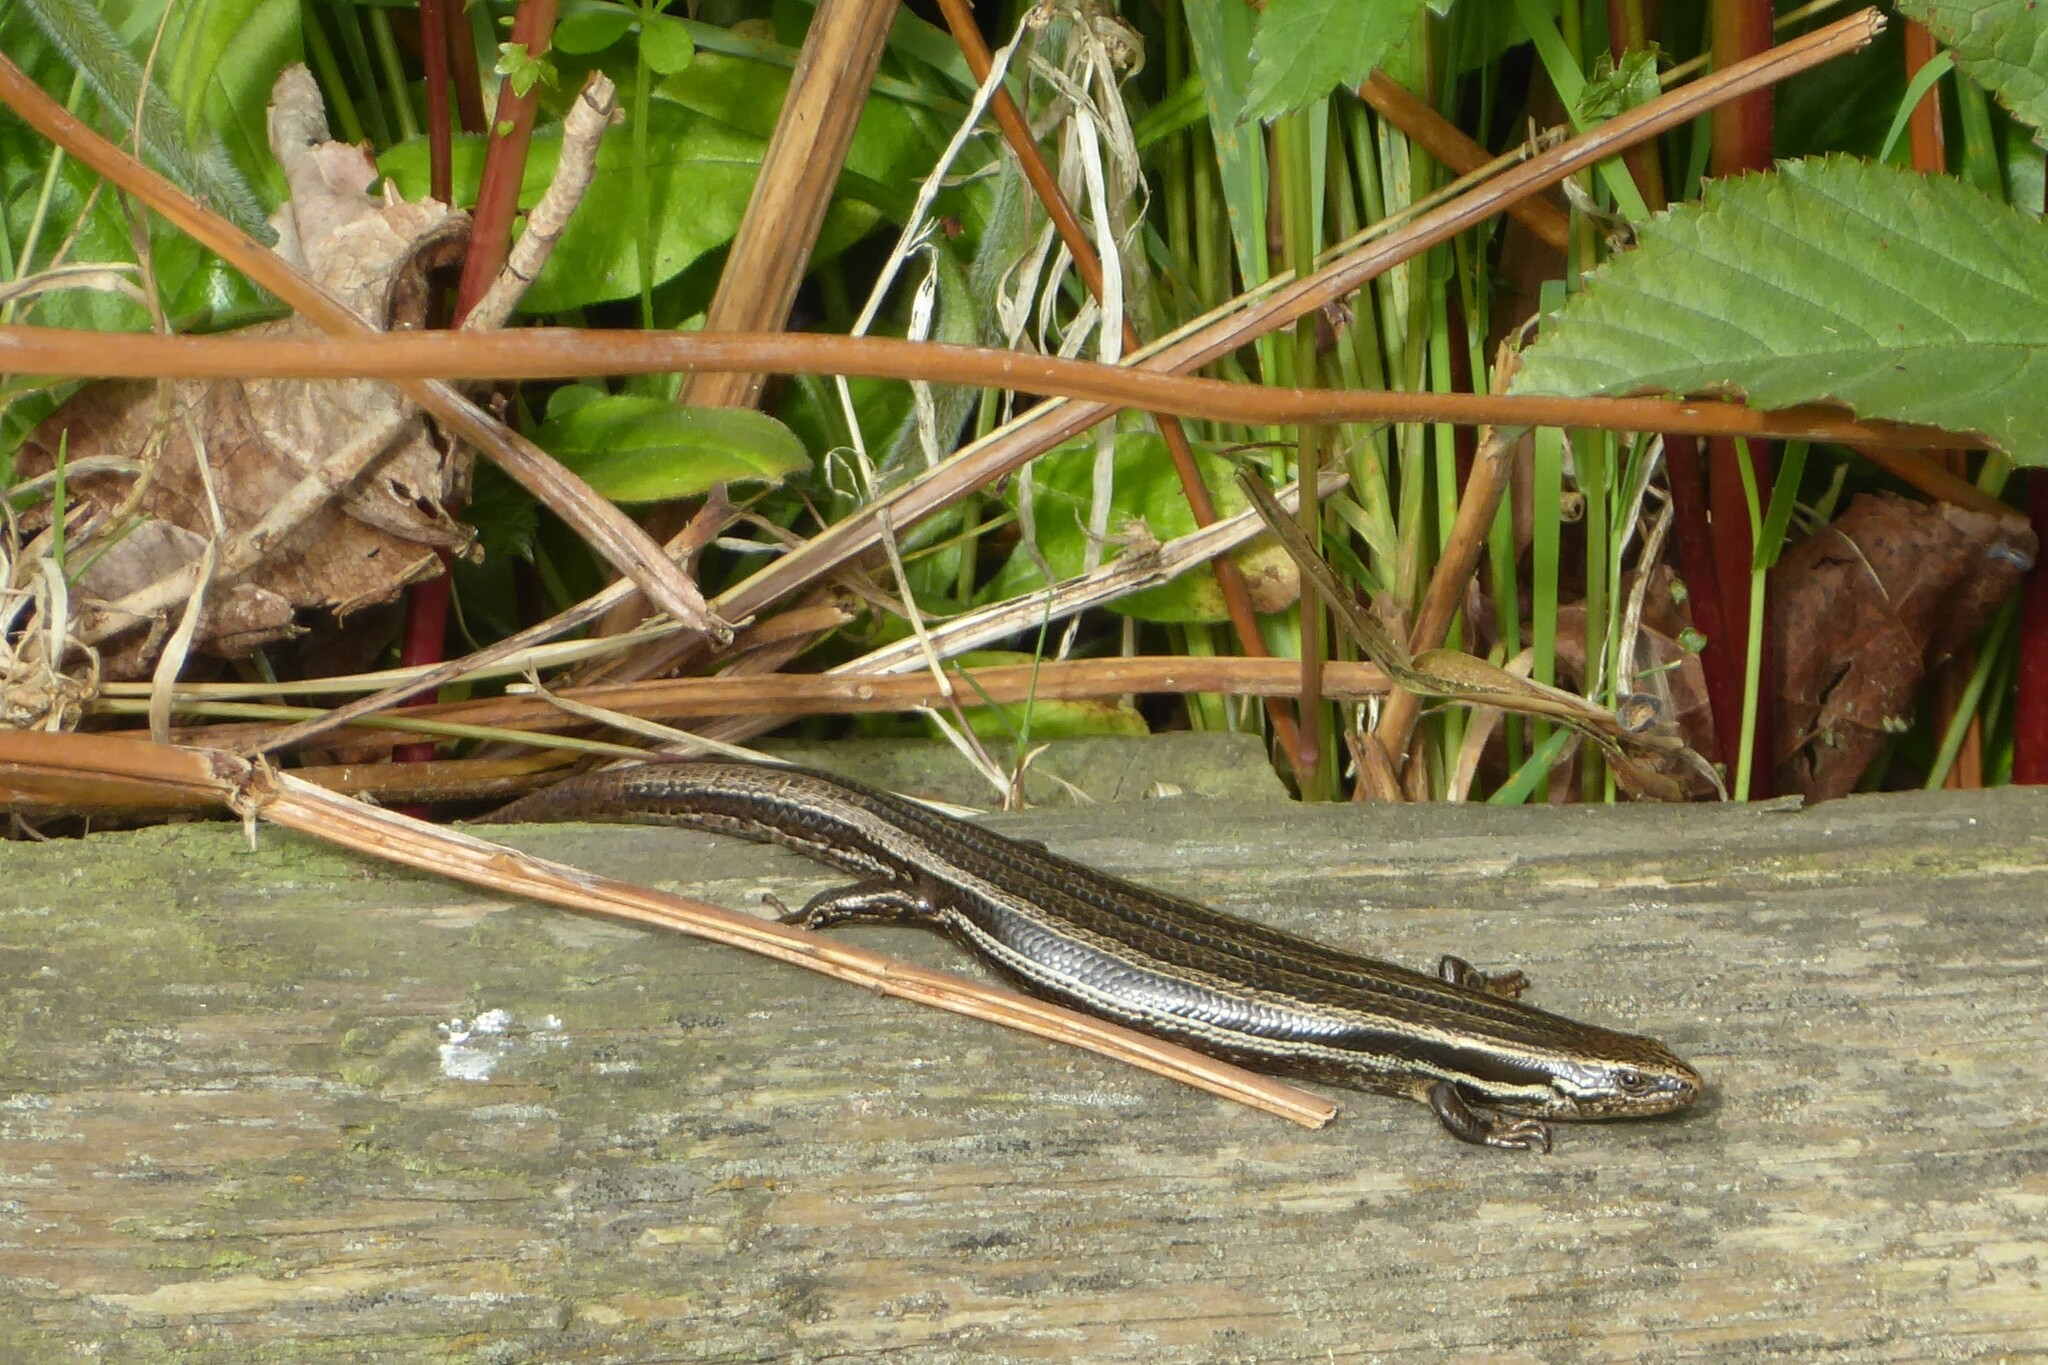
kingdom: Animalia
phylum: Chordata
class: Squamata
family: Scincidae
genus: Oligosoma
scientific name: Oligosoma polychroma
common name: Common new zealand skink
